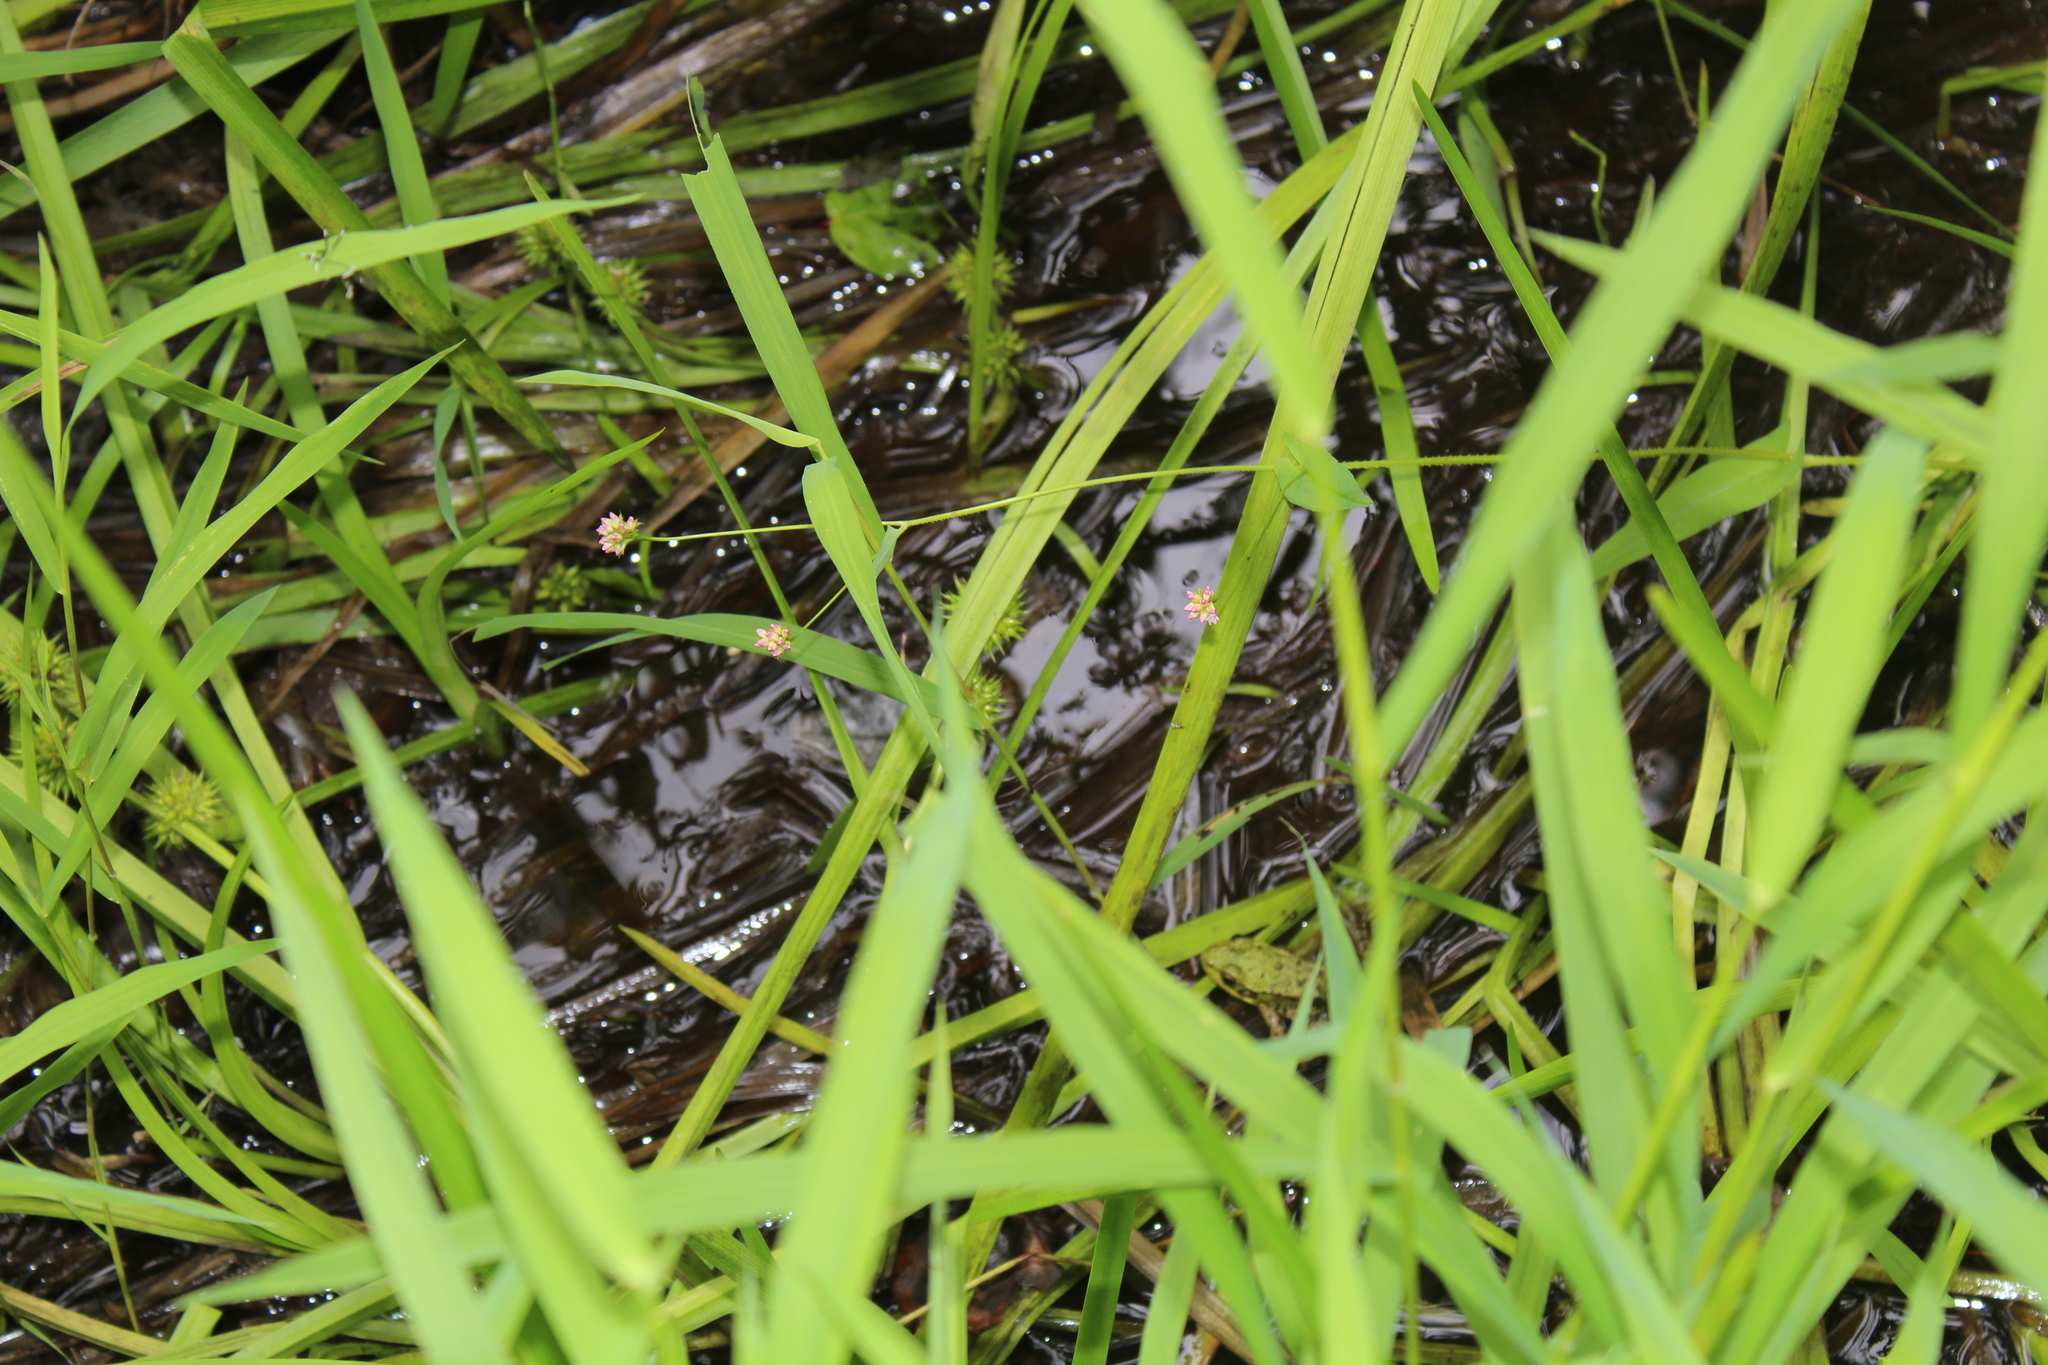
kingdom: Plantae
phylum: Tracheophyta
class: Magnoliopsida
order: Caryophyllales
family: Polygonaceae
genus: Persicaria
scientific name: Persicaria sagittata
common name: American tearthumb
